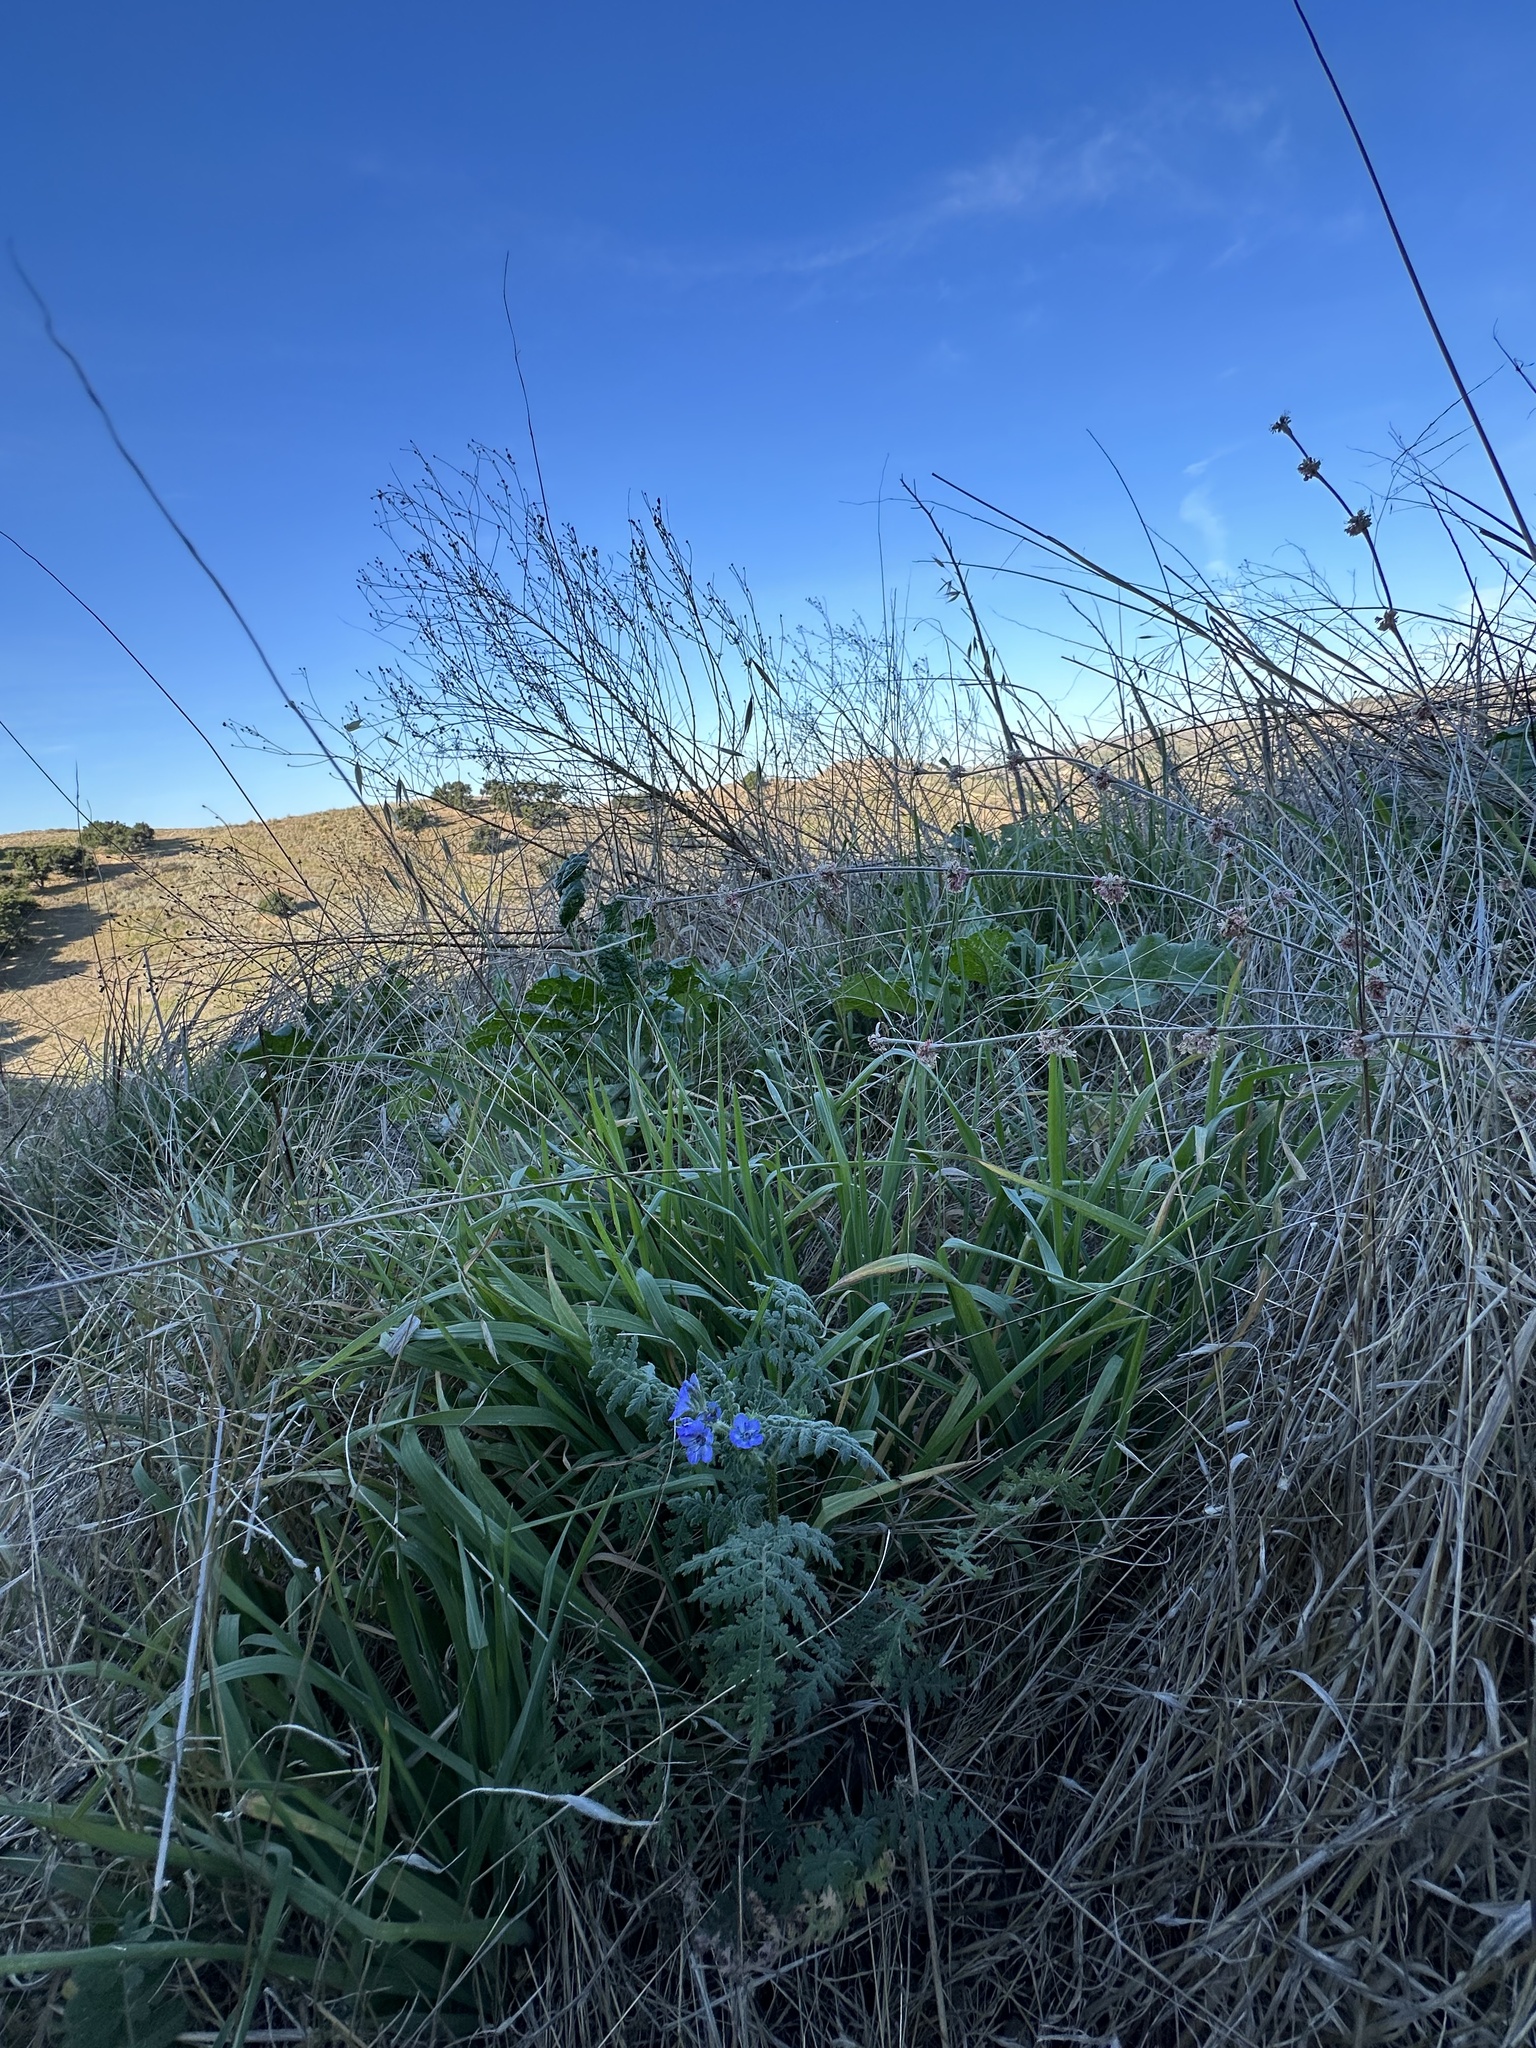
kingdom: Plantae
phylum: Tracheophyta
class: Magnoliopsida
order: Boraginales
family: Hydrophyllaceae
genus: Phacelia
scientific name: Phacelia distans
